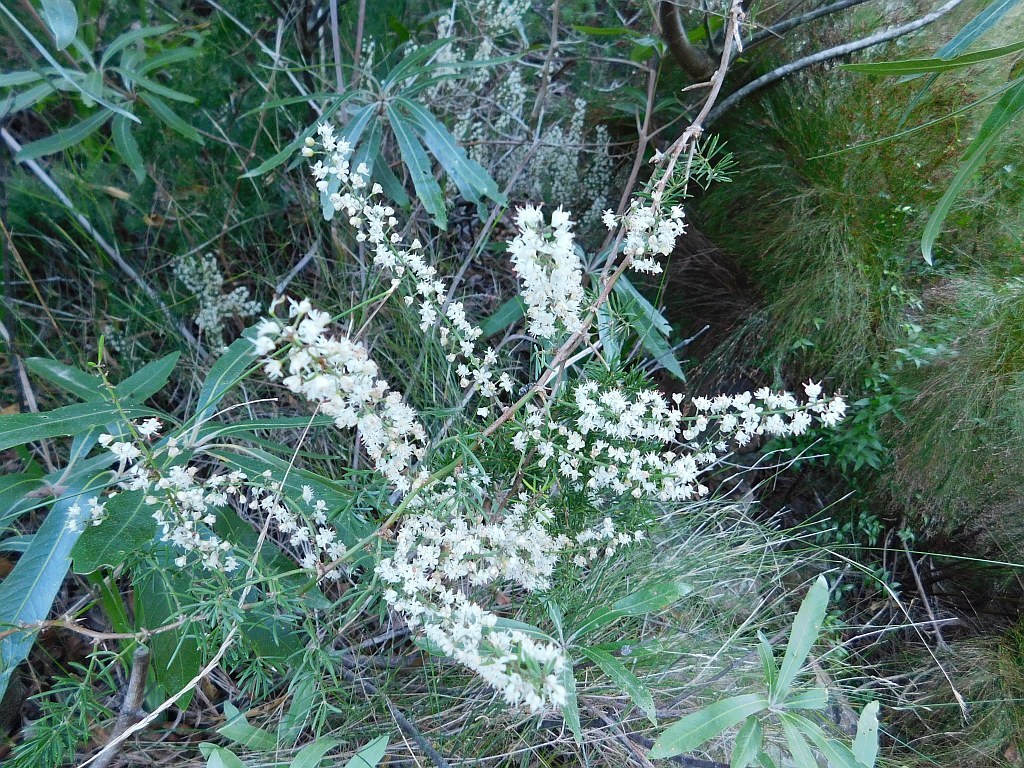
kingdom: Plantae
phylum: Tracheophyta
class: Liliopsida
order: Asparagales
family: Asparagaceae
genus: Asparagus
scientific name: Asparagus aethiopicus
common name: Sprenger's asparagus fern
